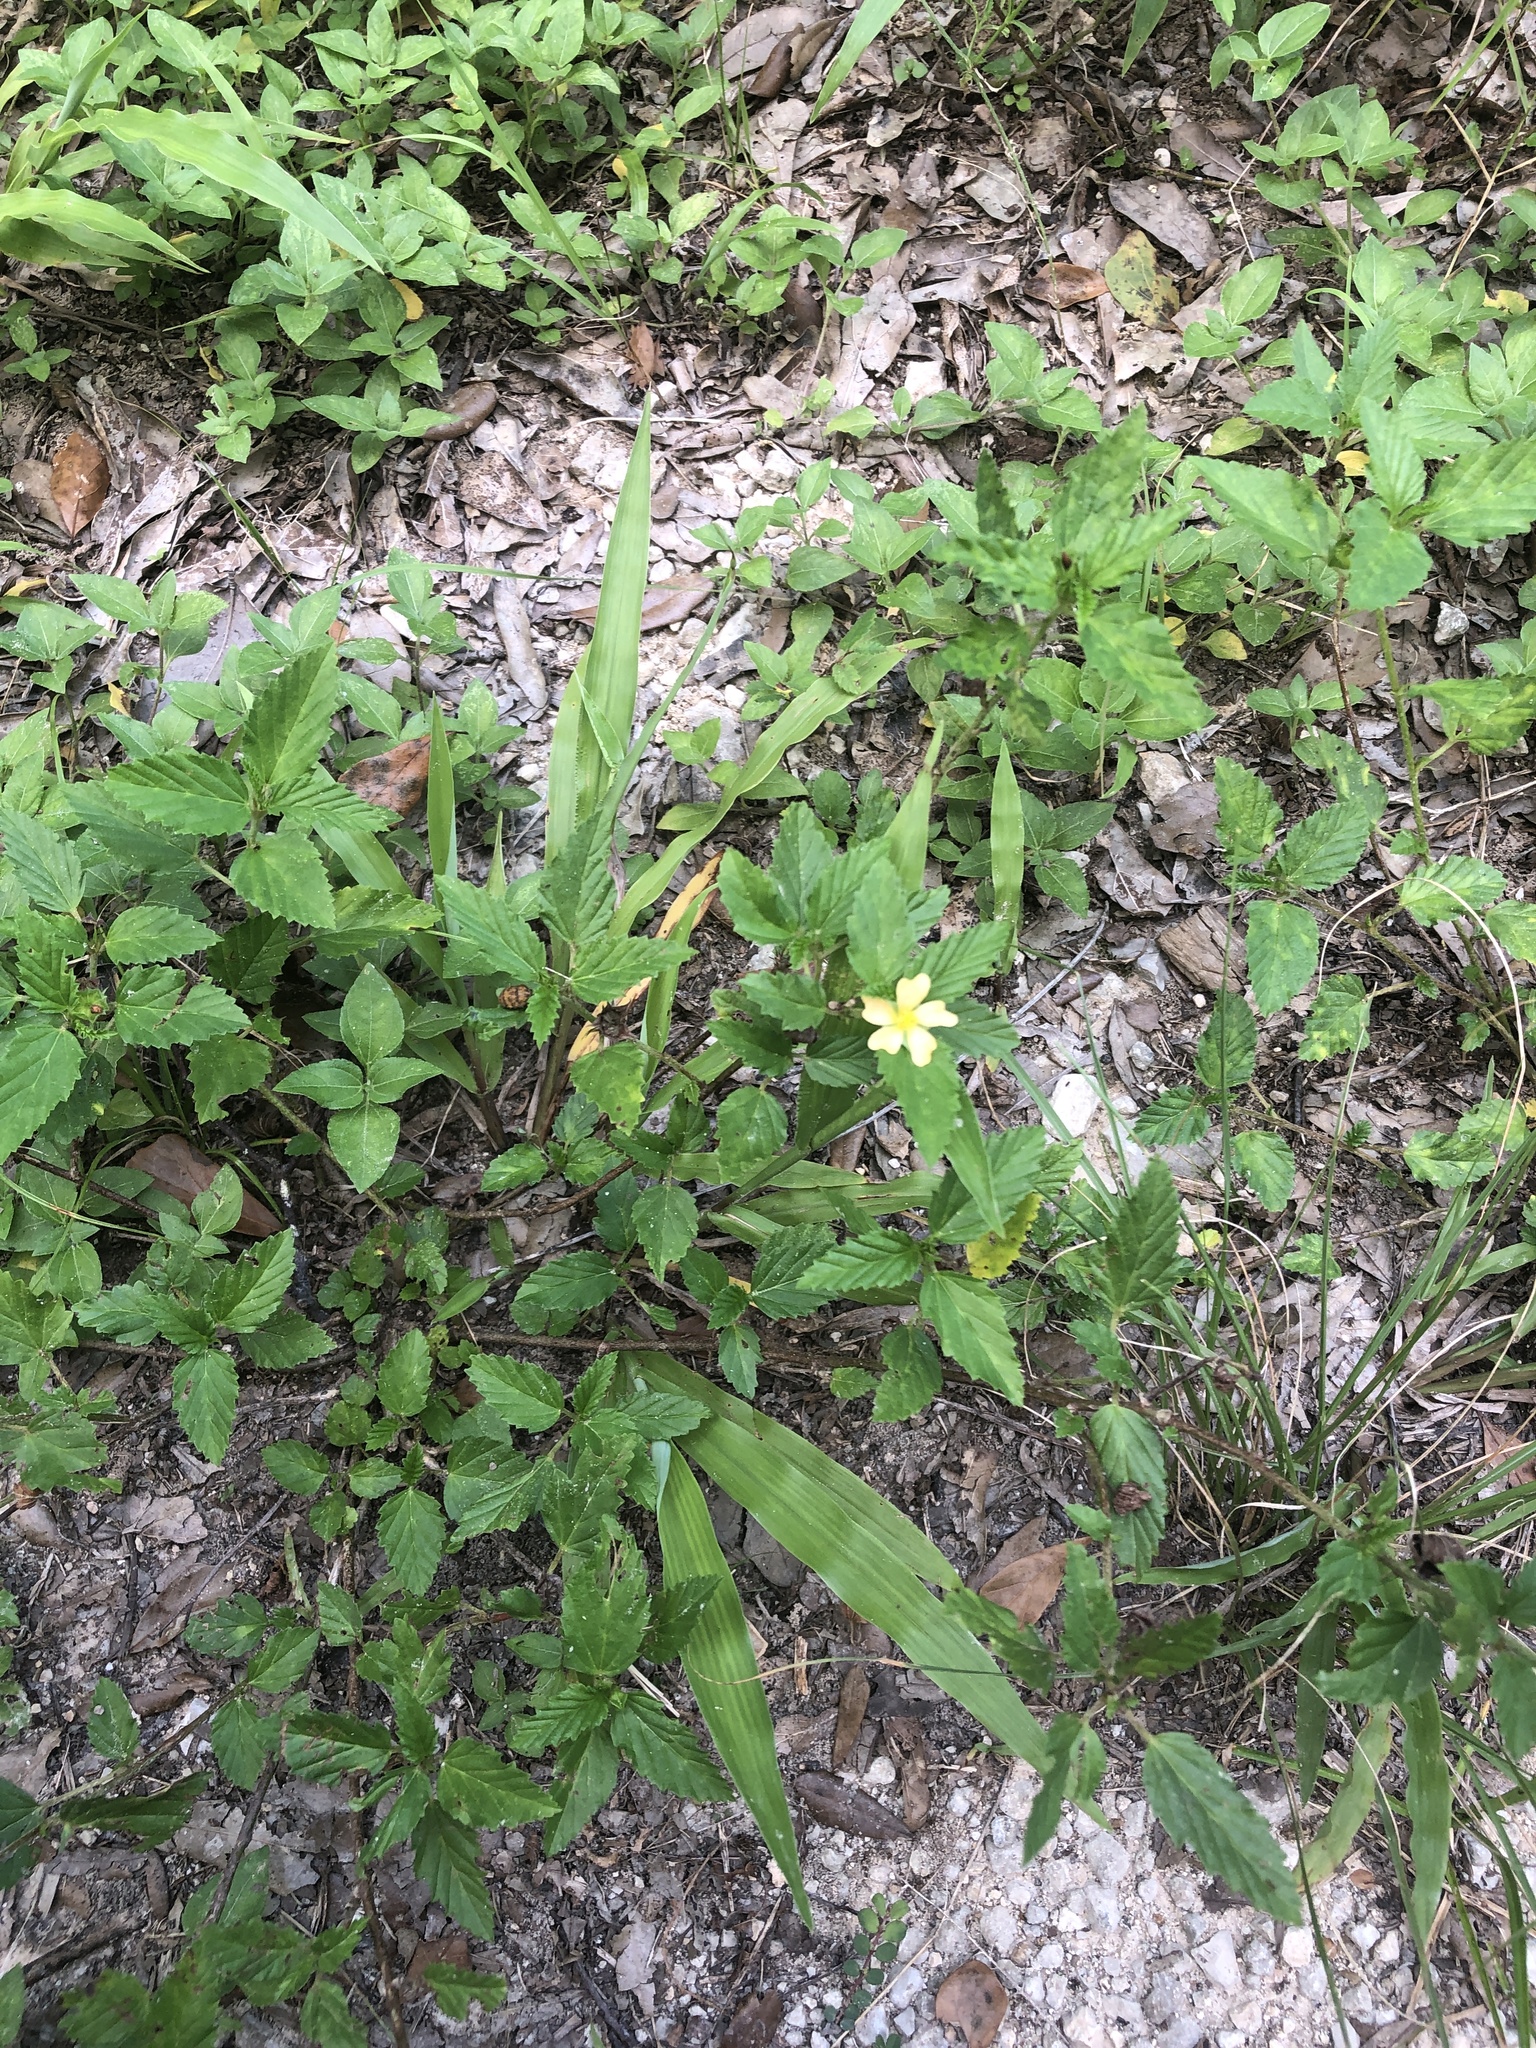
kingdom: Plantae
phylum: Tracheophyta
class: Magnoliopsida
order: Malvales
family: Malvaceae
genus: Malvastrum
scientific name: Malvastrum coromandelianum
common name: Threelobe false mallow
